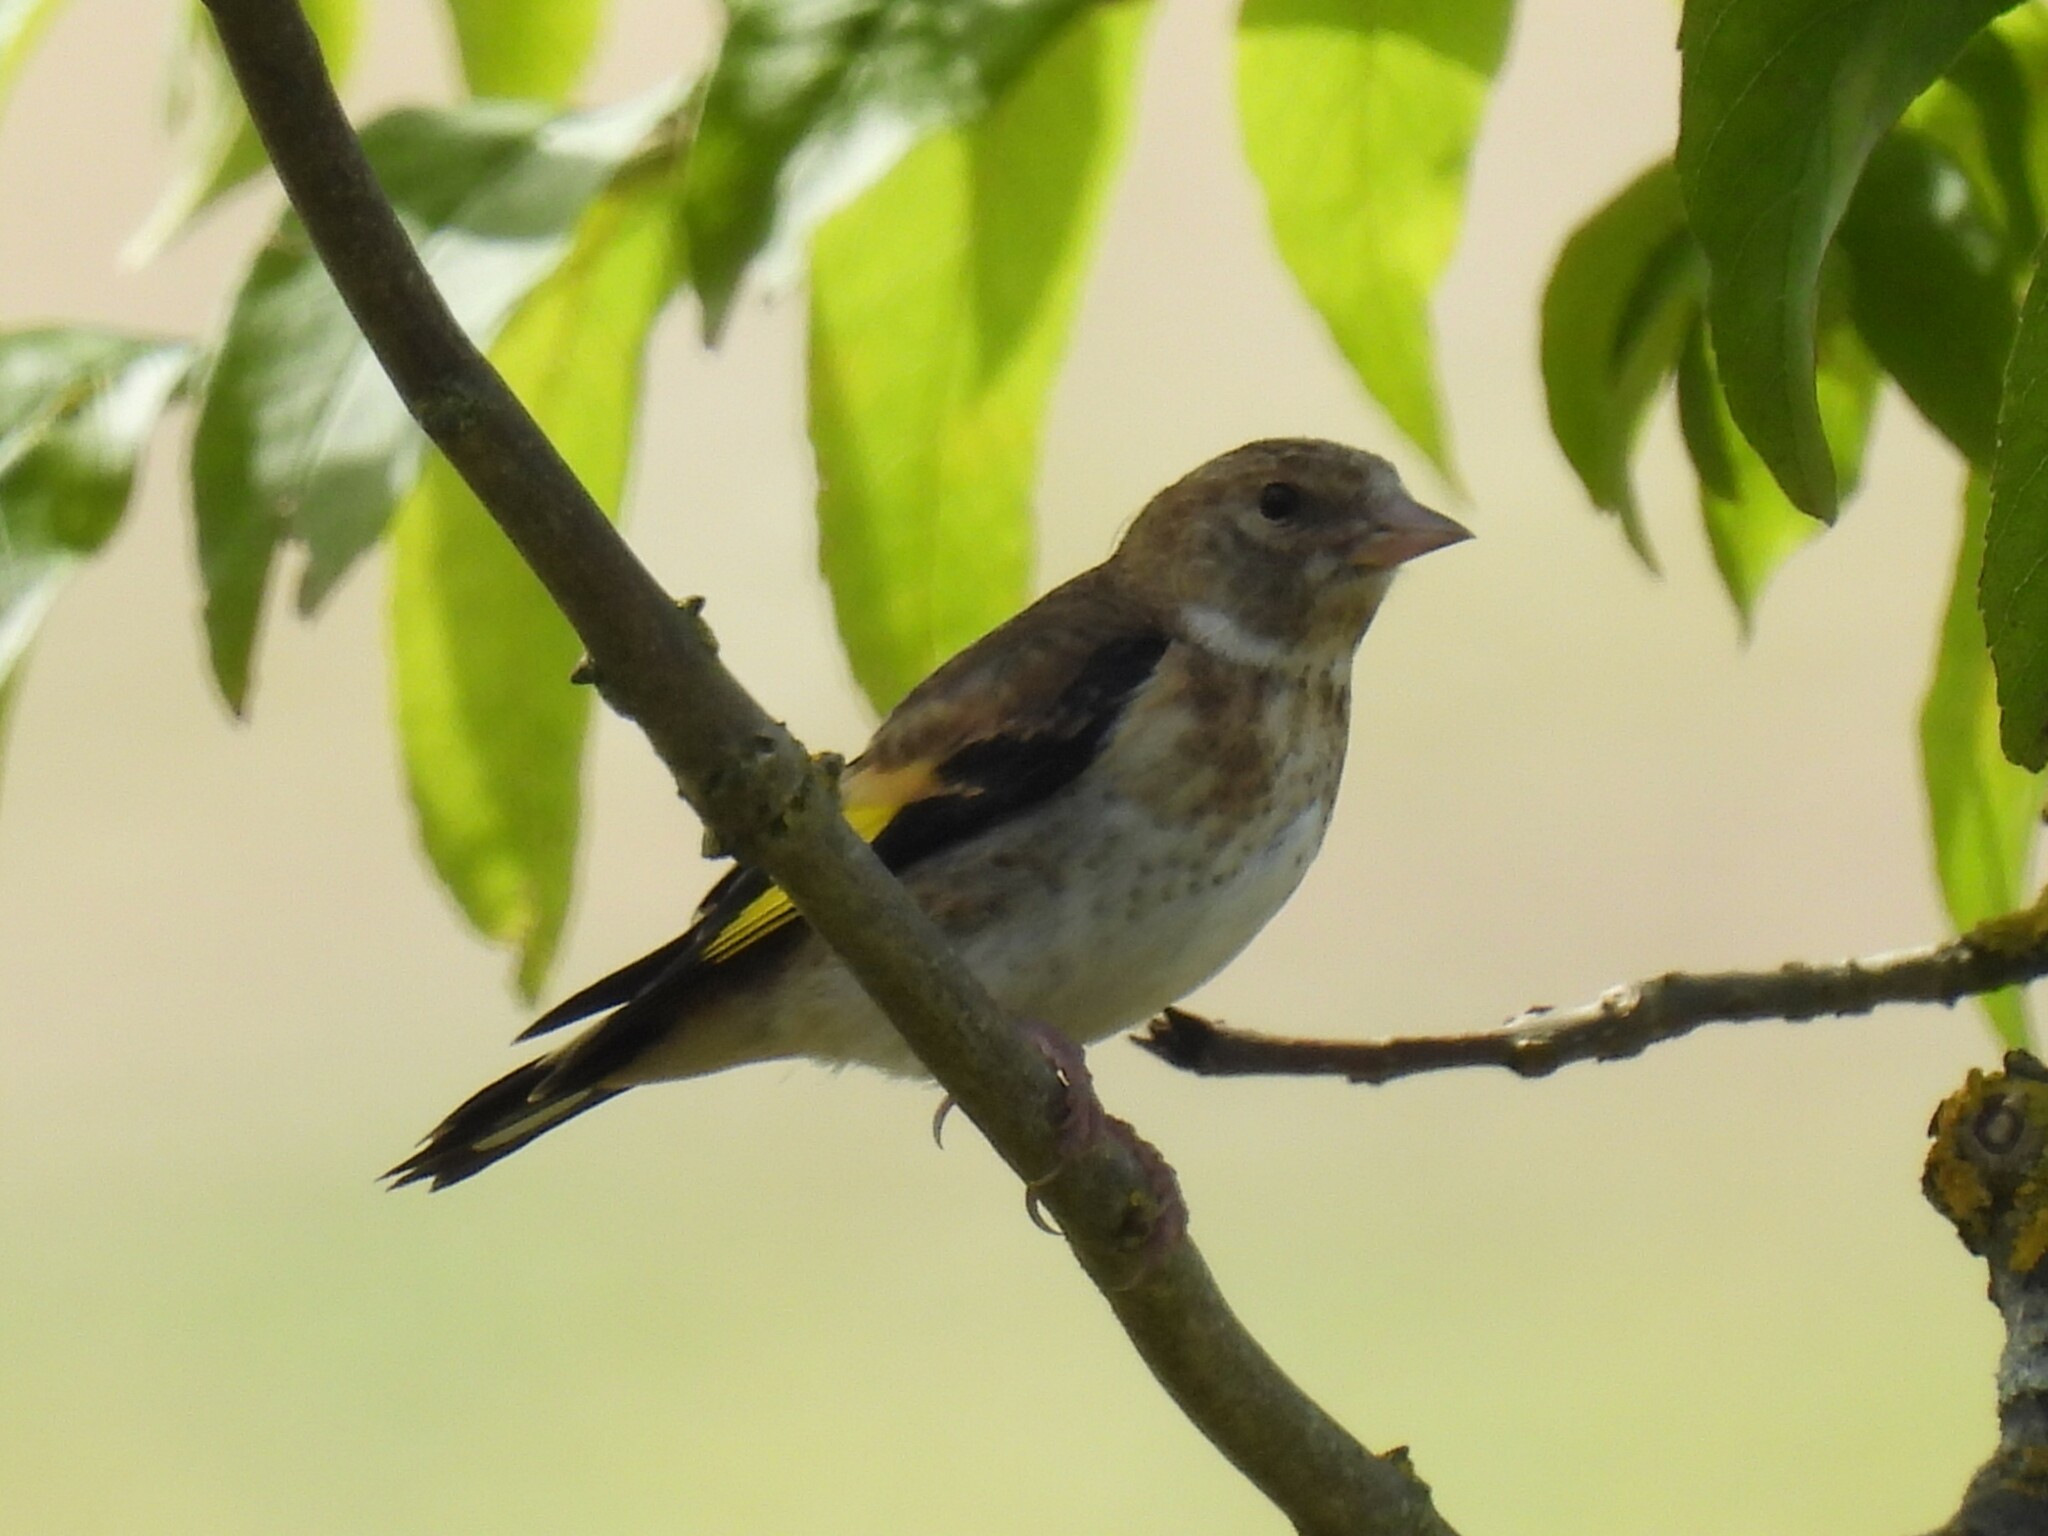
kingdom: Animalia
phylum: Chordata
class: Aves
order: Passeriformes
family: Fringillidae
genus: Carduelis
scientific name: Carduelis carduelis
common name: European goldfinch
